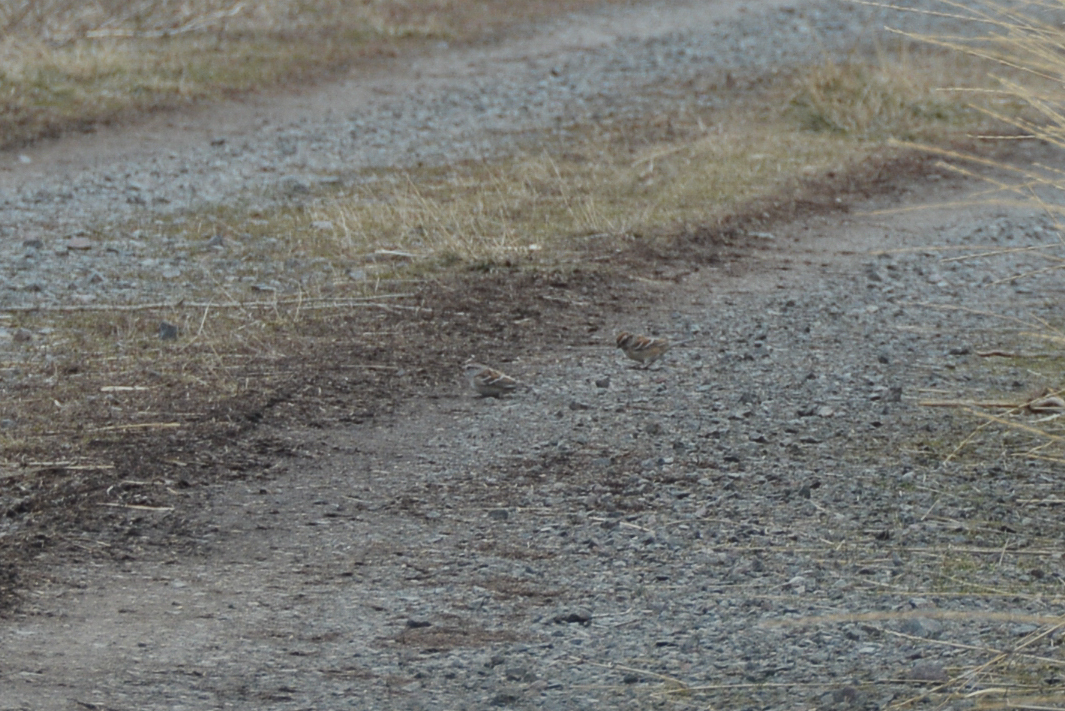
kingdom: Animalia
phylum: Chordata
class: Aves
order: Passeriformes
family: Passerellidae
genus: Spizelloides
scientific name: Spizelloides arborea
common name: American tree sparrow
